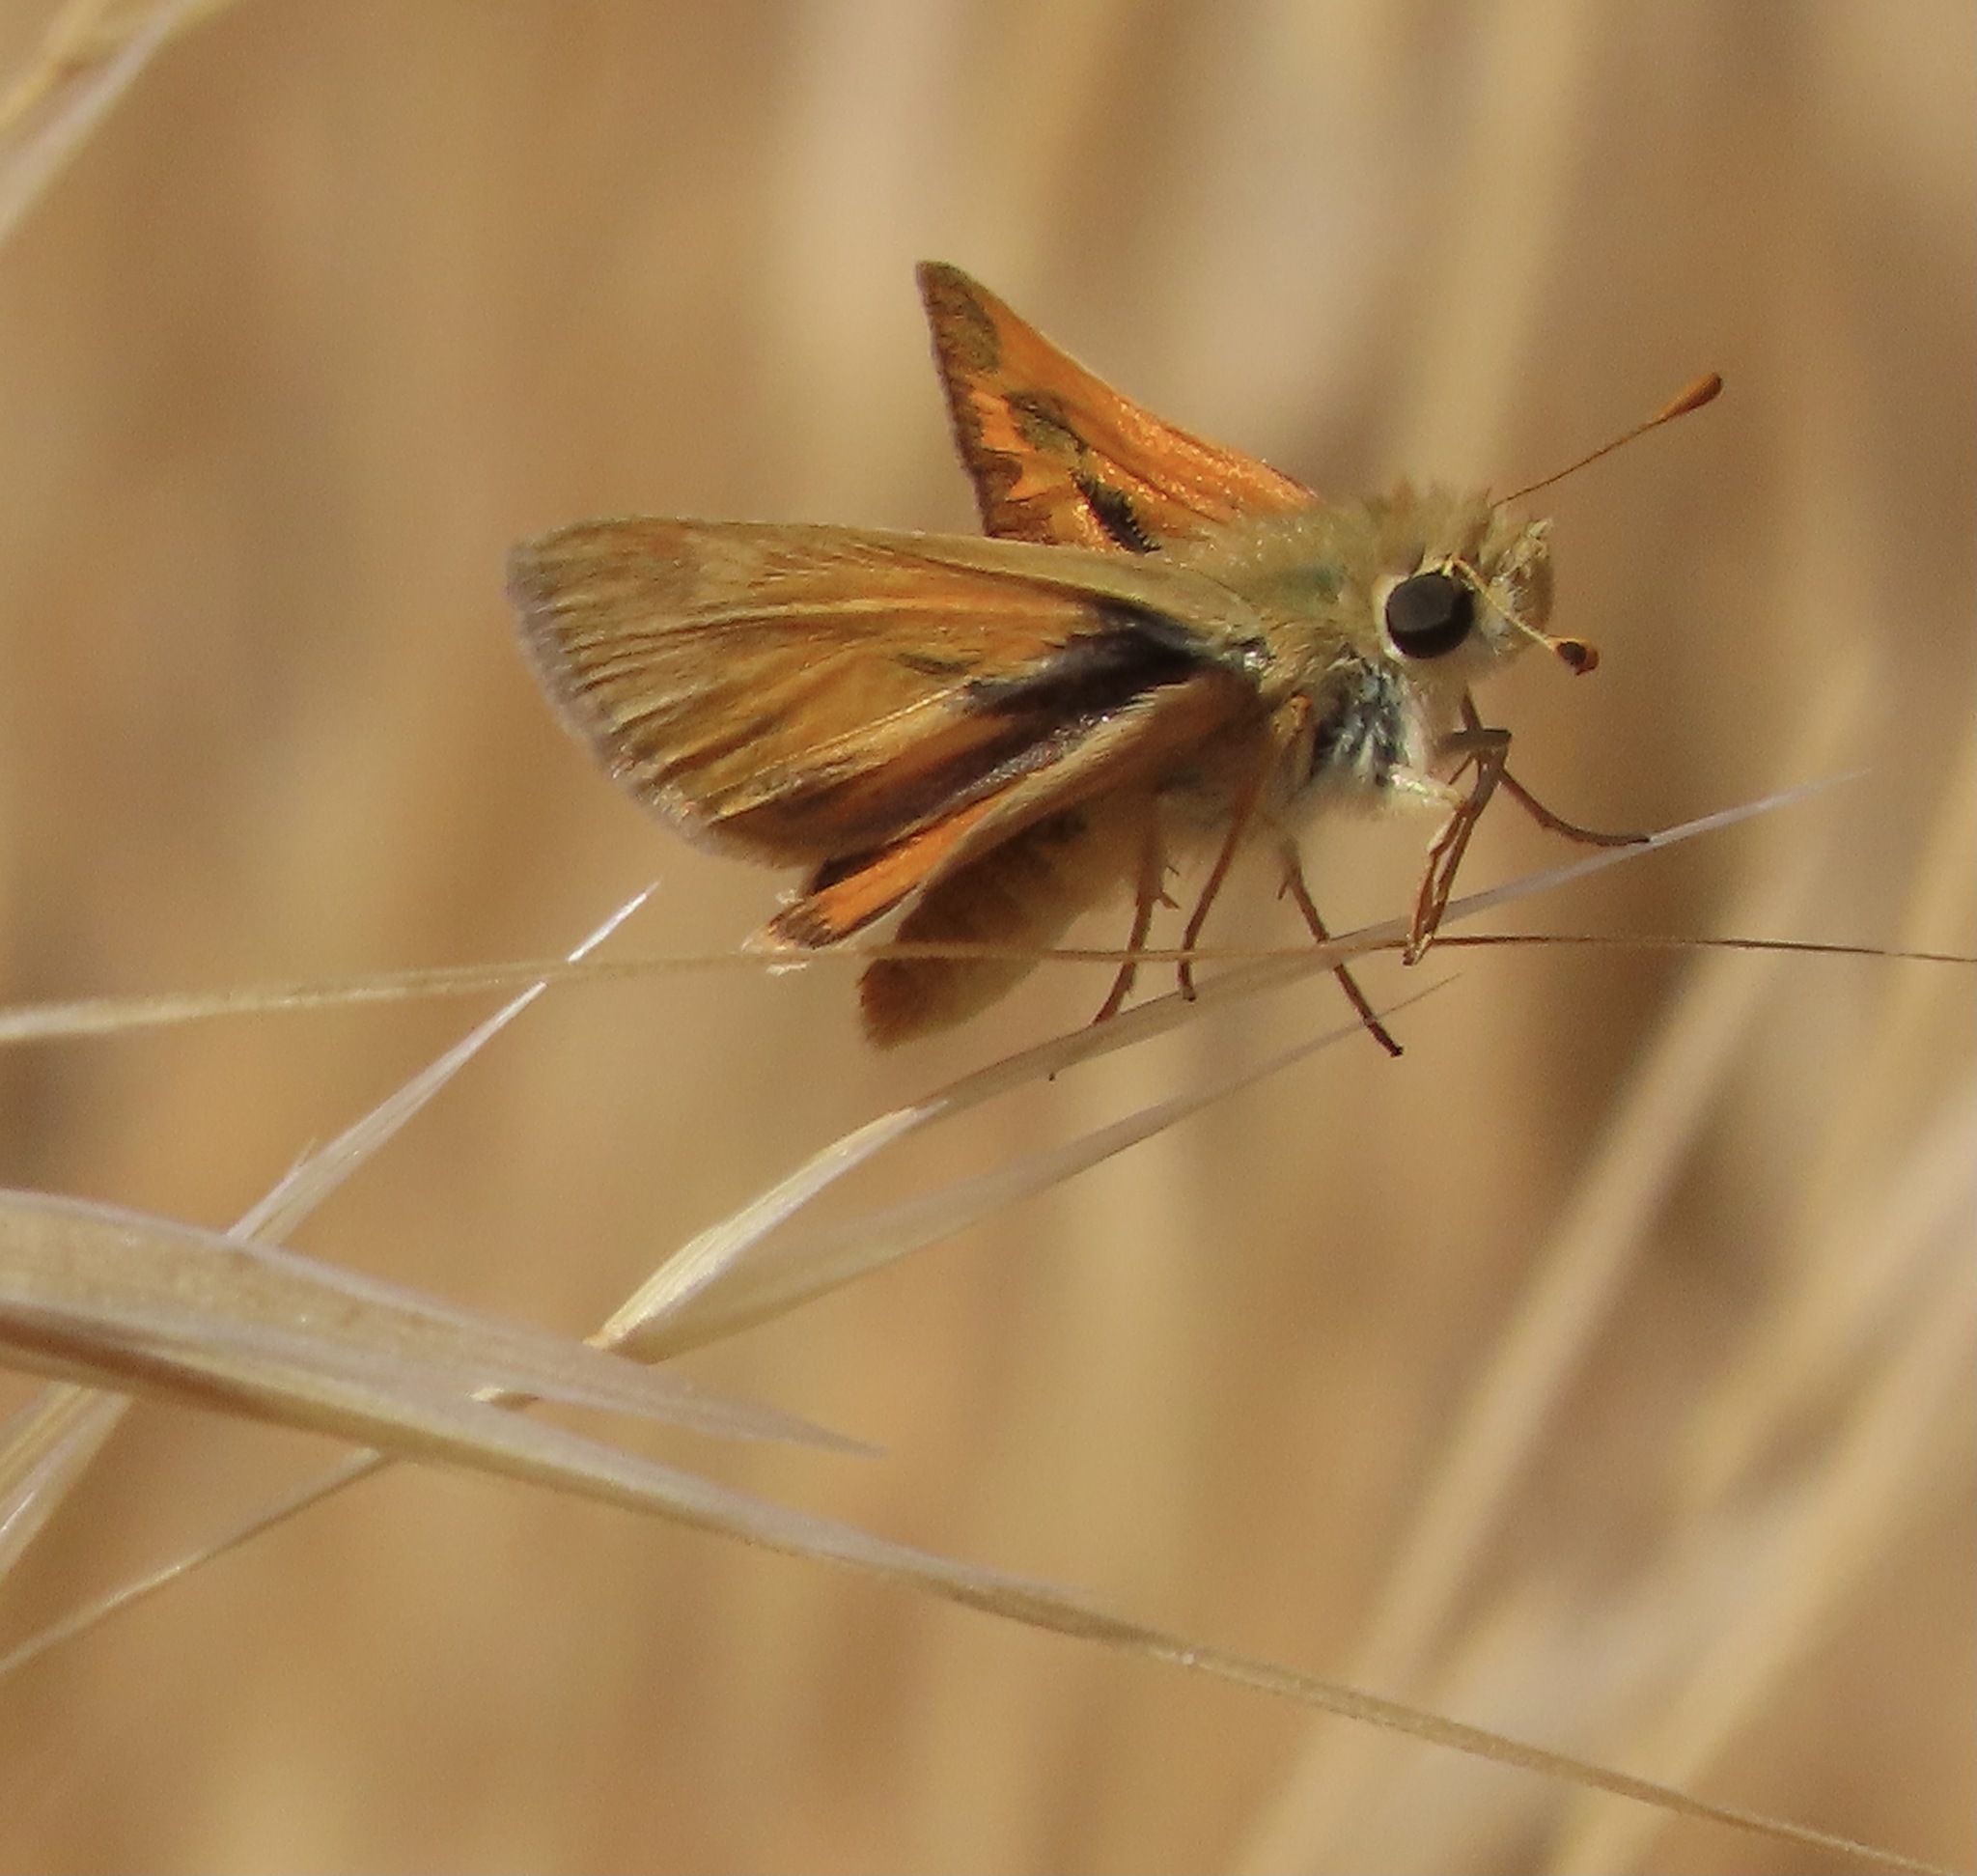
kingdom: Animalia
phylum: Arthropoda
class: Insecta
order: Lepidoptera
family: Hesperiidae
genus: Ochlodes
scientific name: Ochlodes sylvanoides
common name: Woodland skipper
